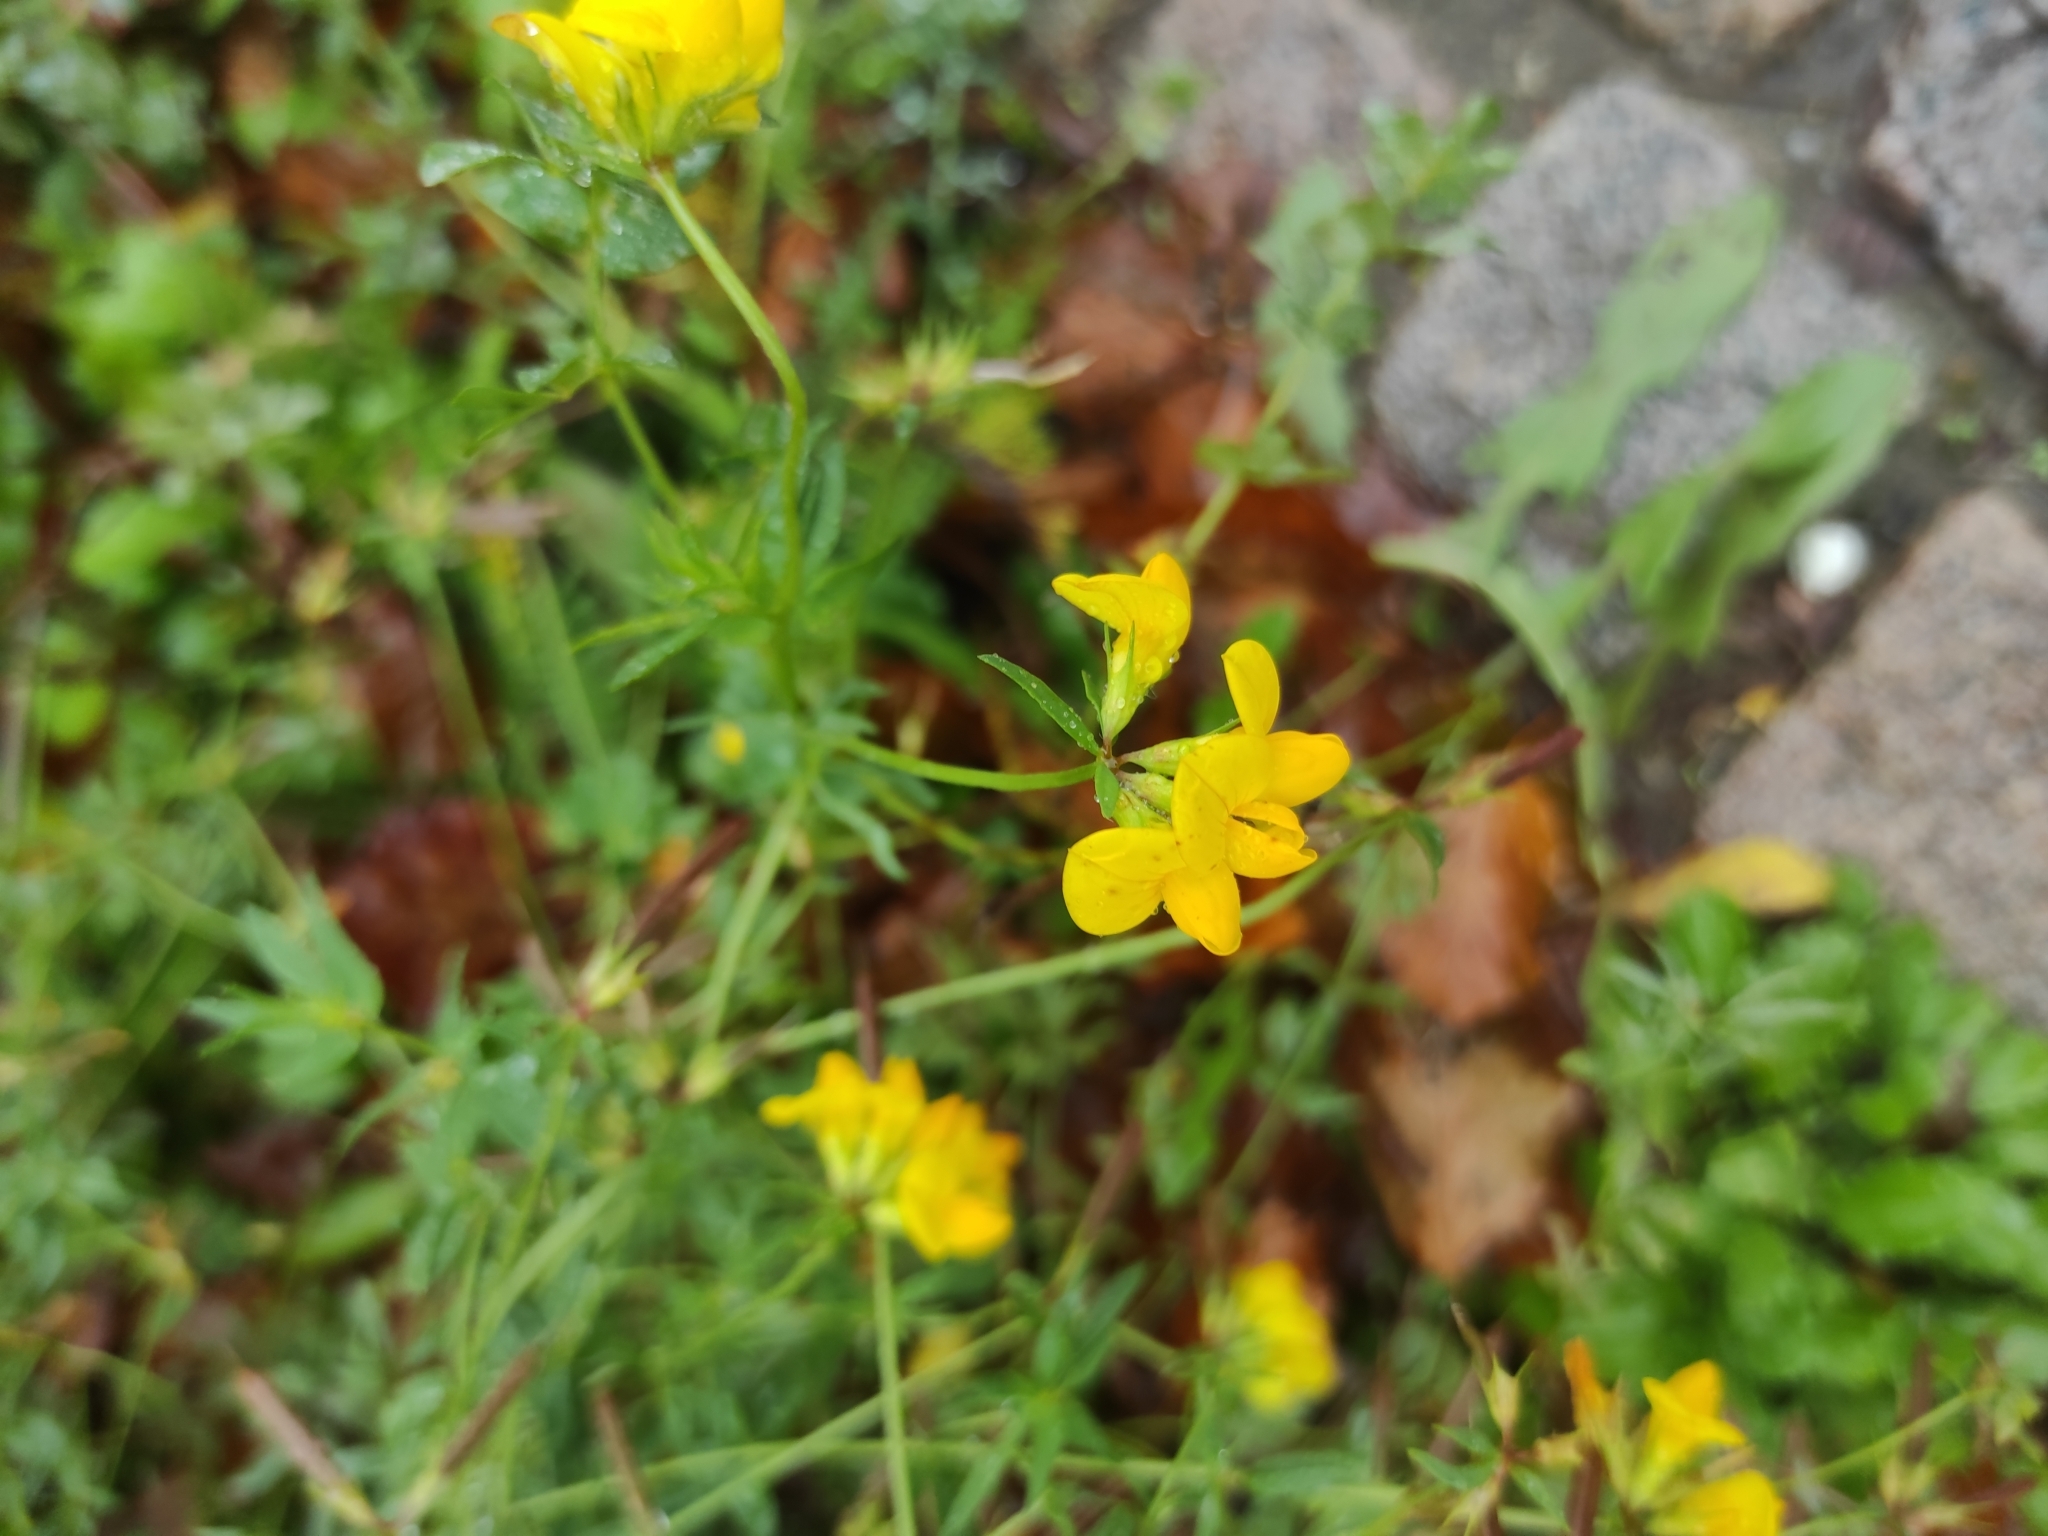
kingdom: Plantae
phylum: Tracheophyta
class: Magnoliopsida
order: Fabales
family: Fabaceae
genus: Lotus
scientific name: Lotus corniculatus
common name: Common bird's-foot-trefoil
